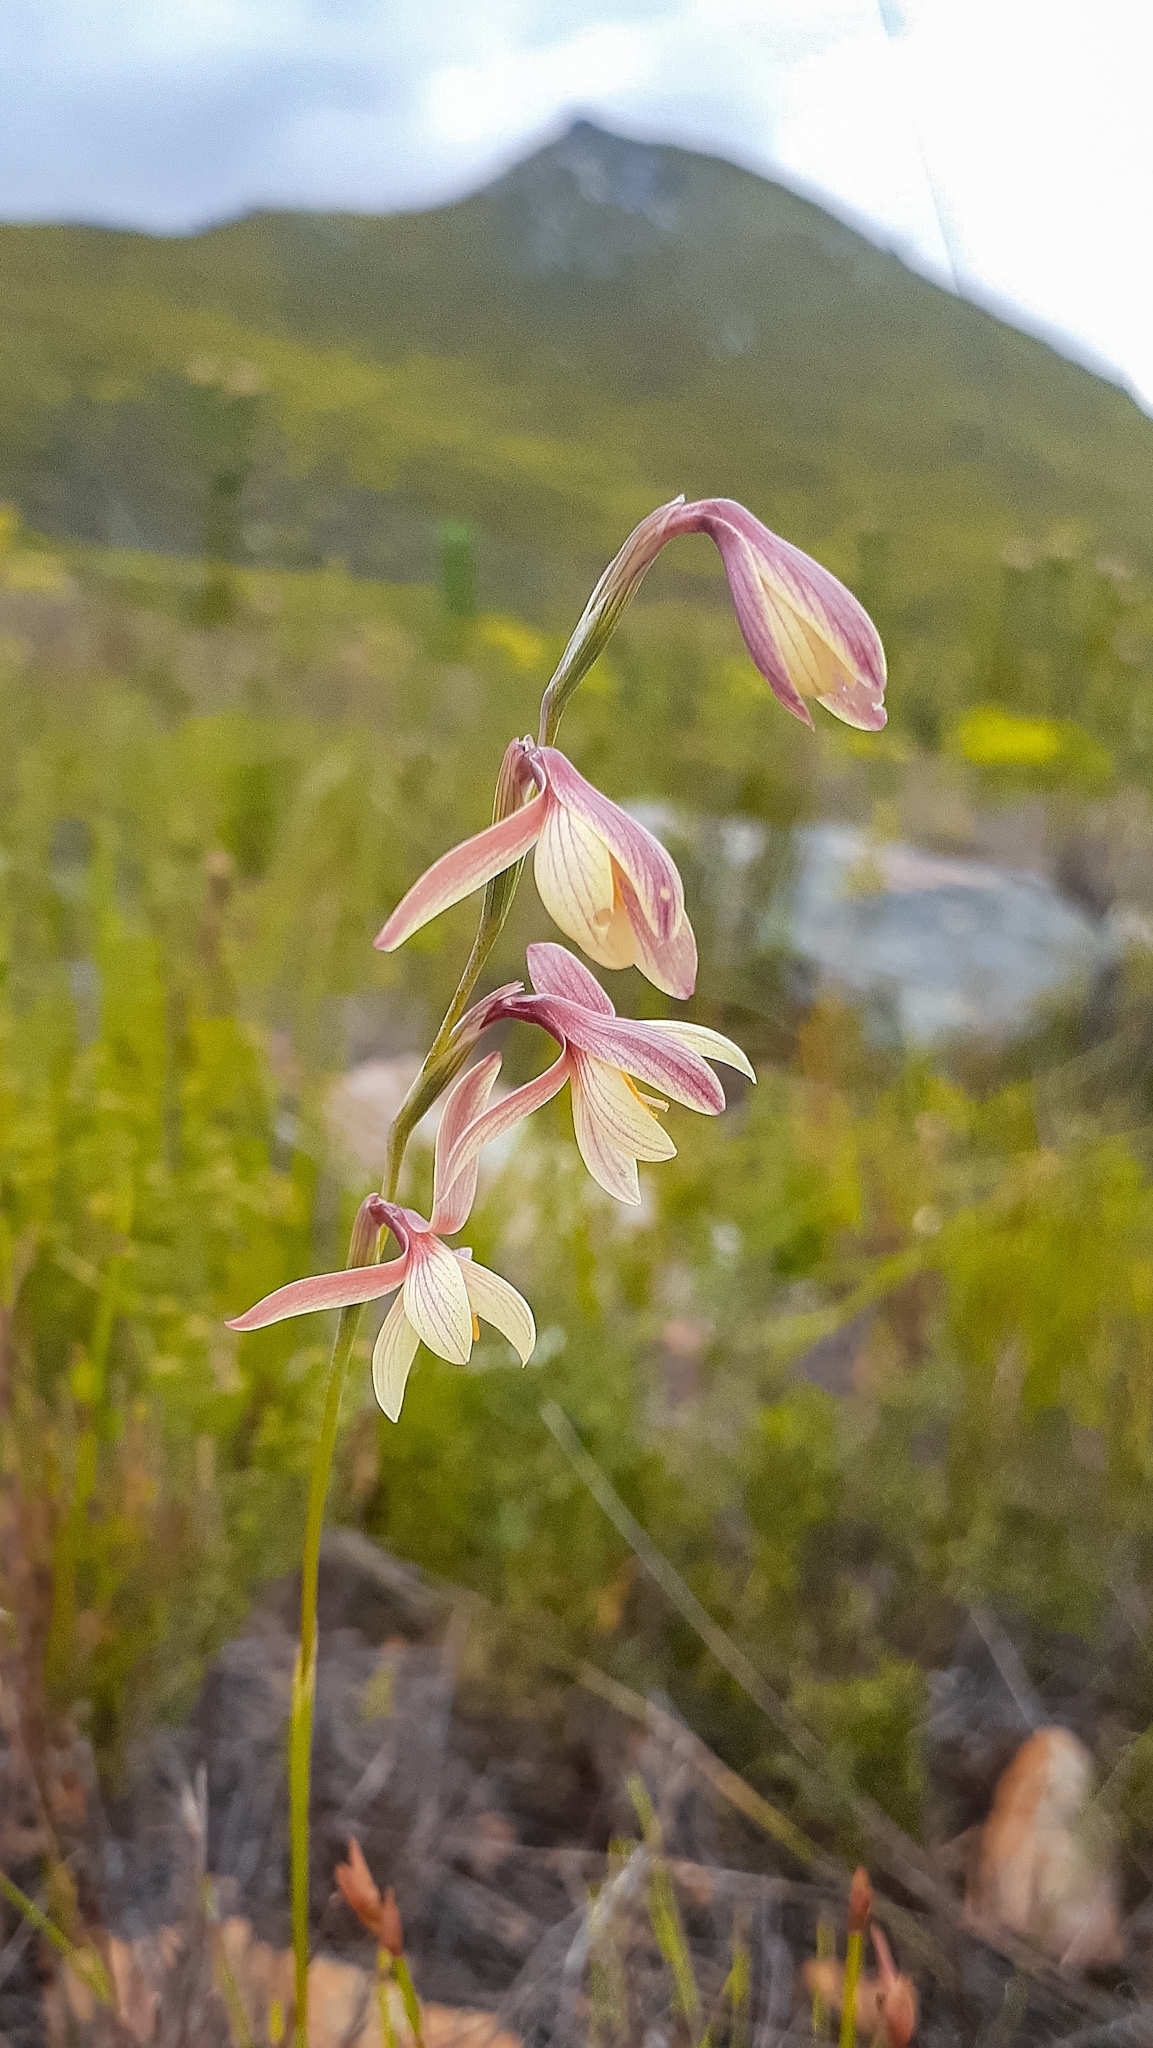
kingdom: Plantae
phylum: Tracheophyta
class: Liliopsida
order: Asparagales
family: Iridaceae
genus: Hesperantha
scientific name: Hesperantha radiata
